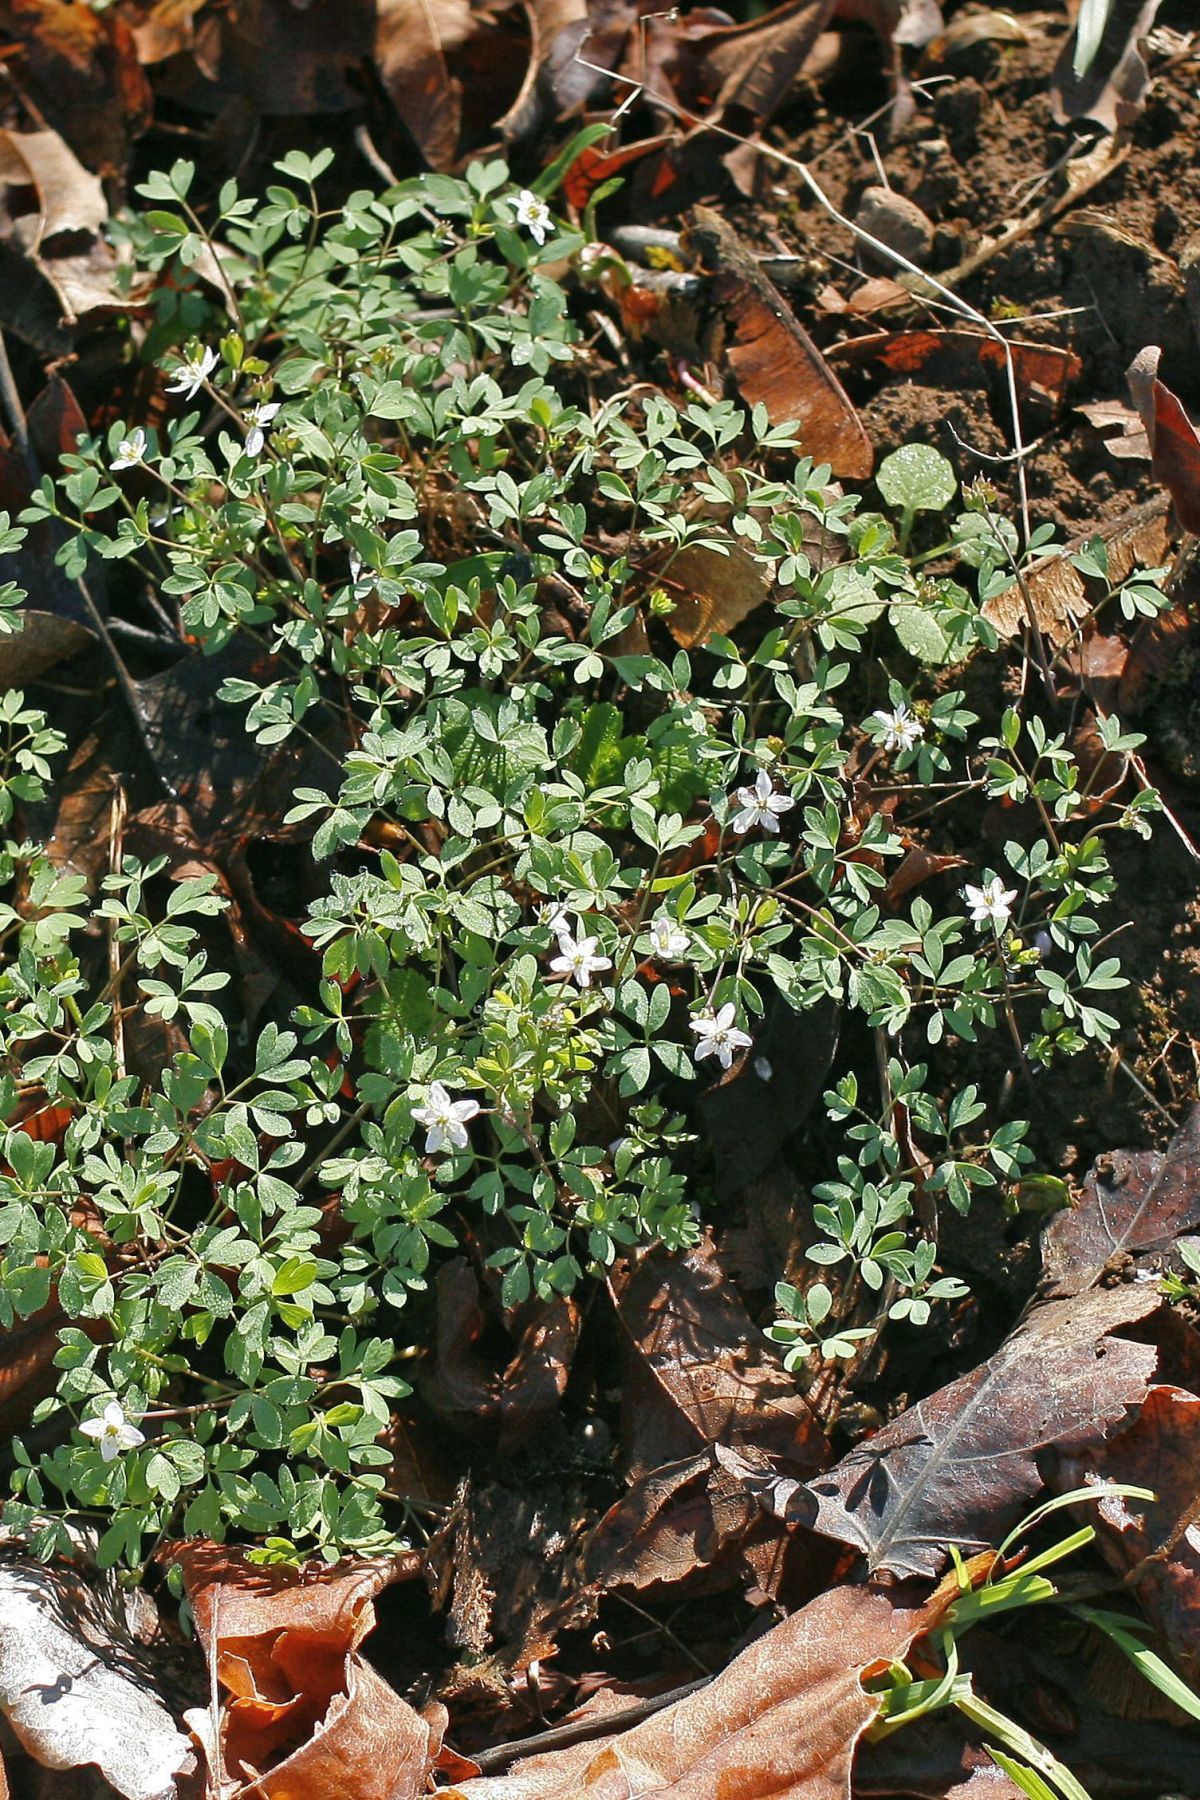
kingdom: Plantae
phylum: Tracheophyta
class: Magnoliopsida
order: Ranunculales
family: Ranunculaceae
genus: Enemion
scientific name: Enemion stipitatum
